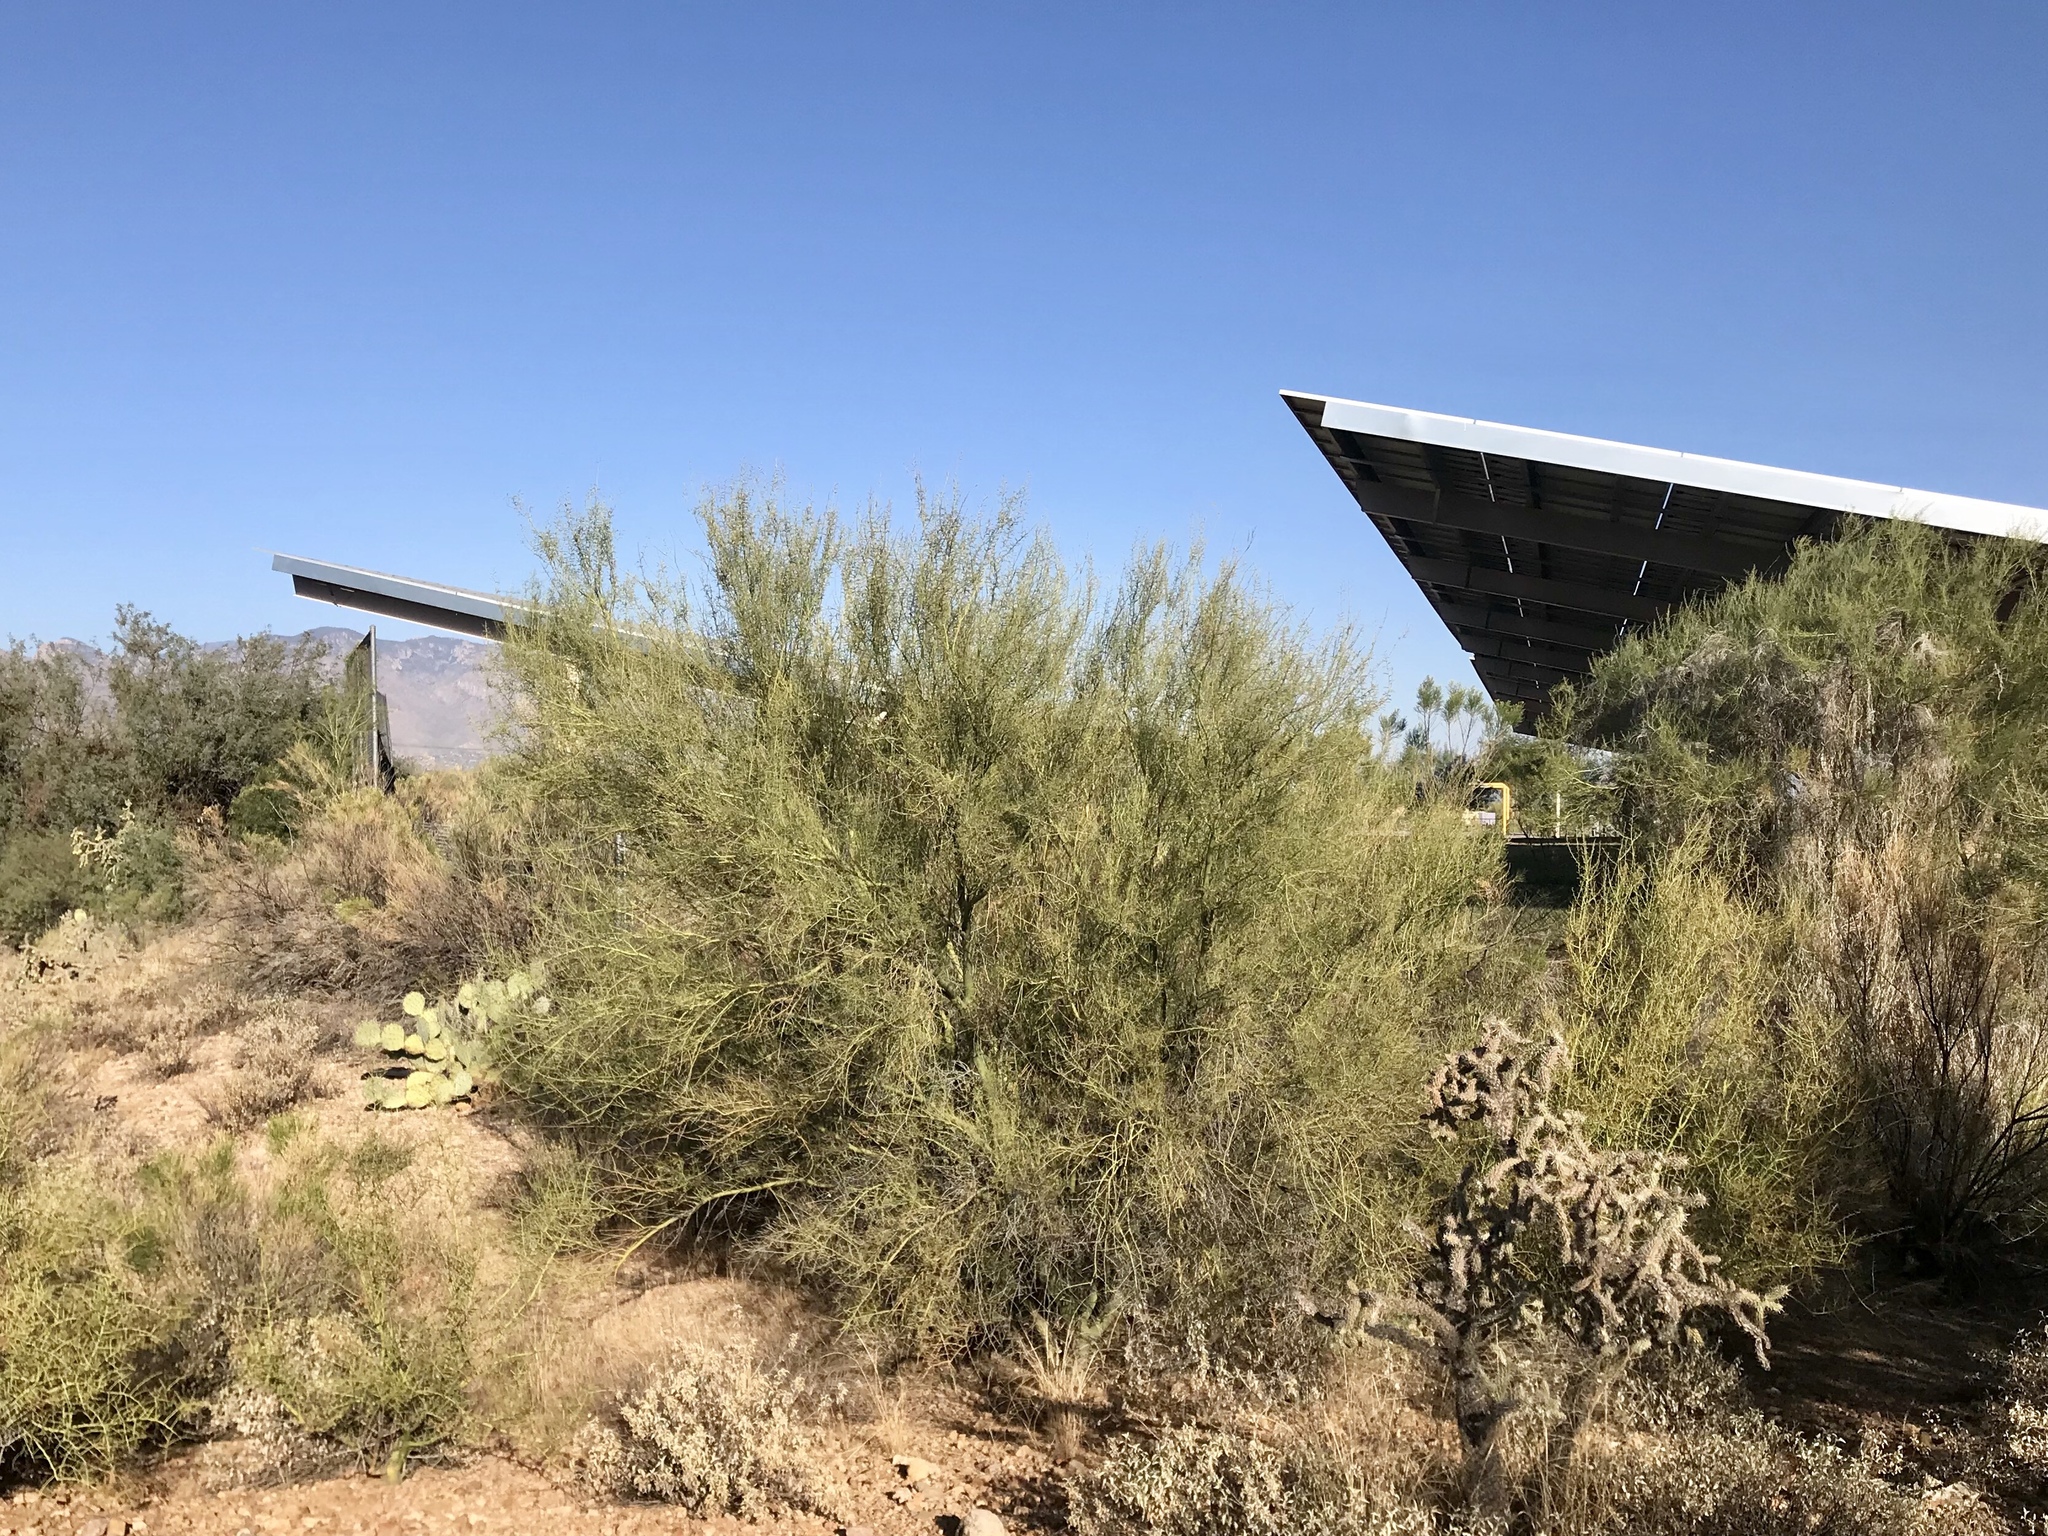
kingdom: Plantae
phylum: Tracheophyta
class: Magnoliopsida
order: Fabales
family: Fabaceae
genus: Parkinsonia
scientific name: Parkinsonia florida
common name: Blue paloverde
